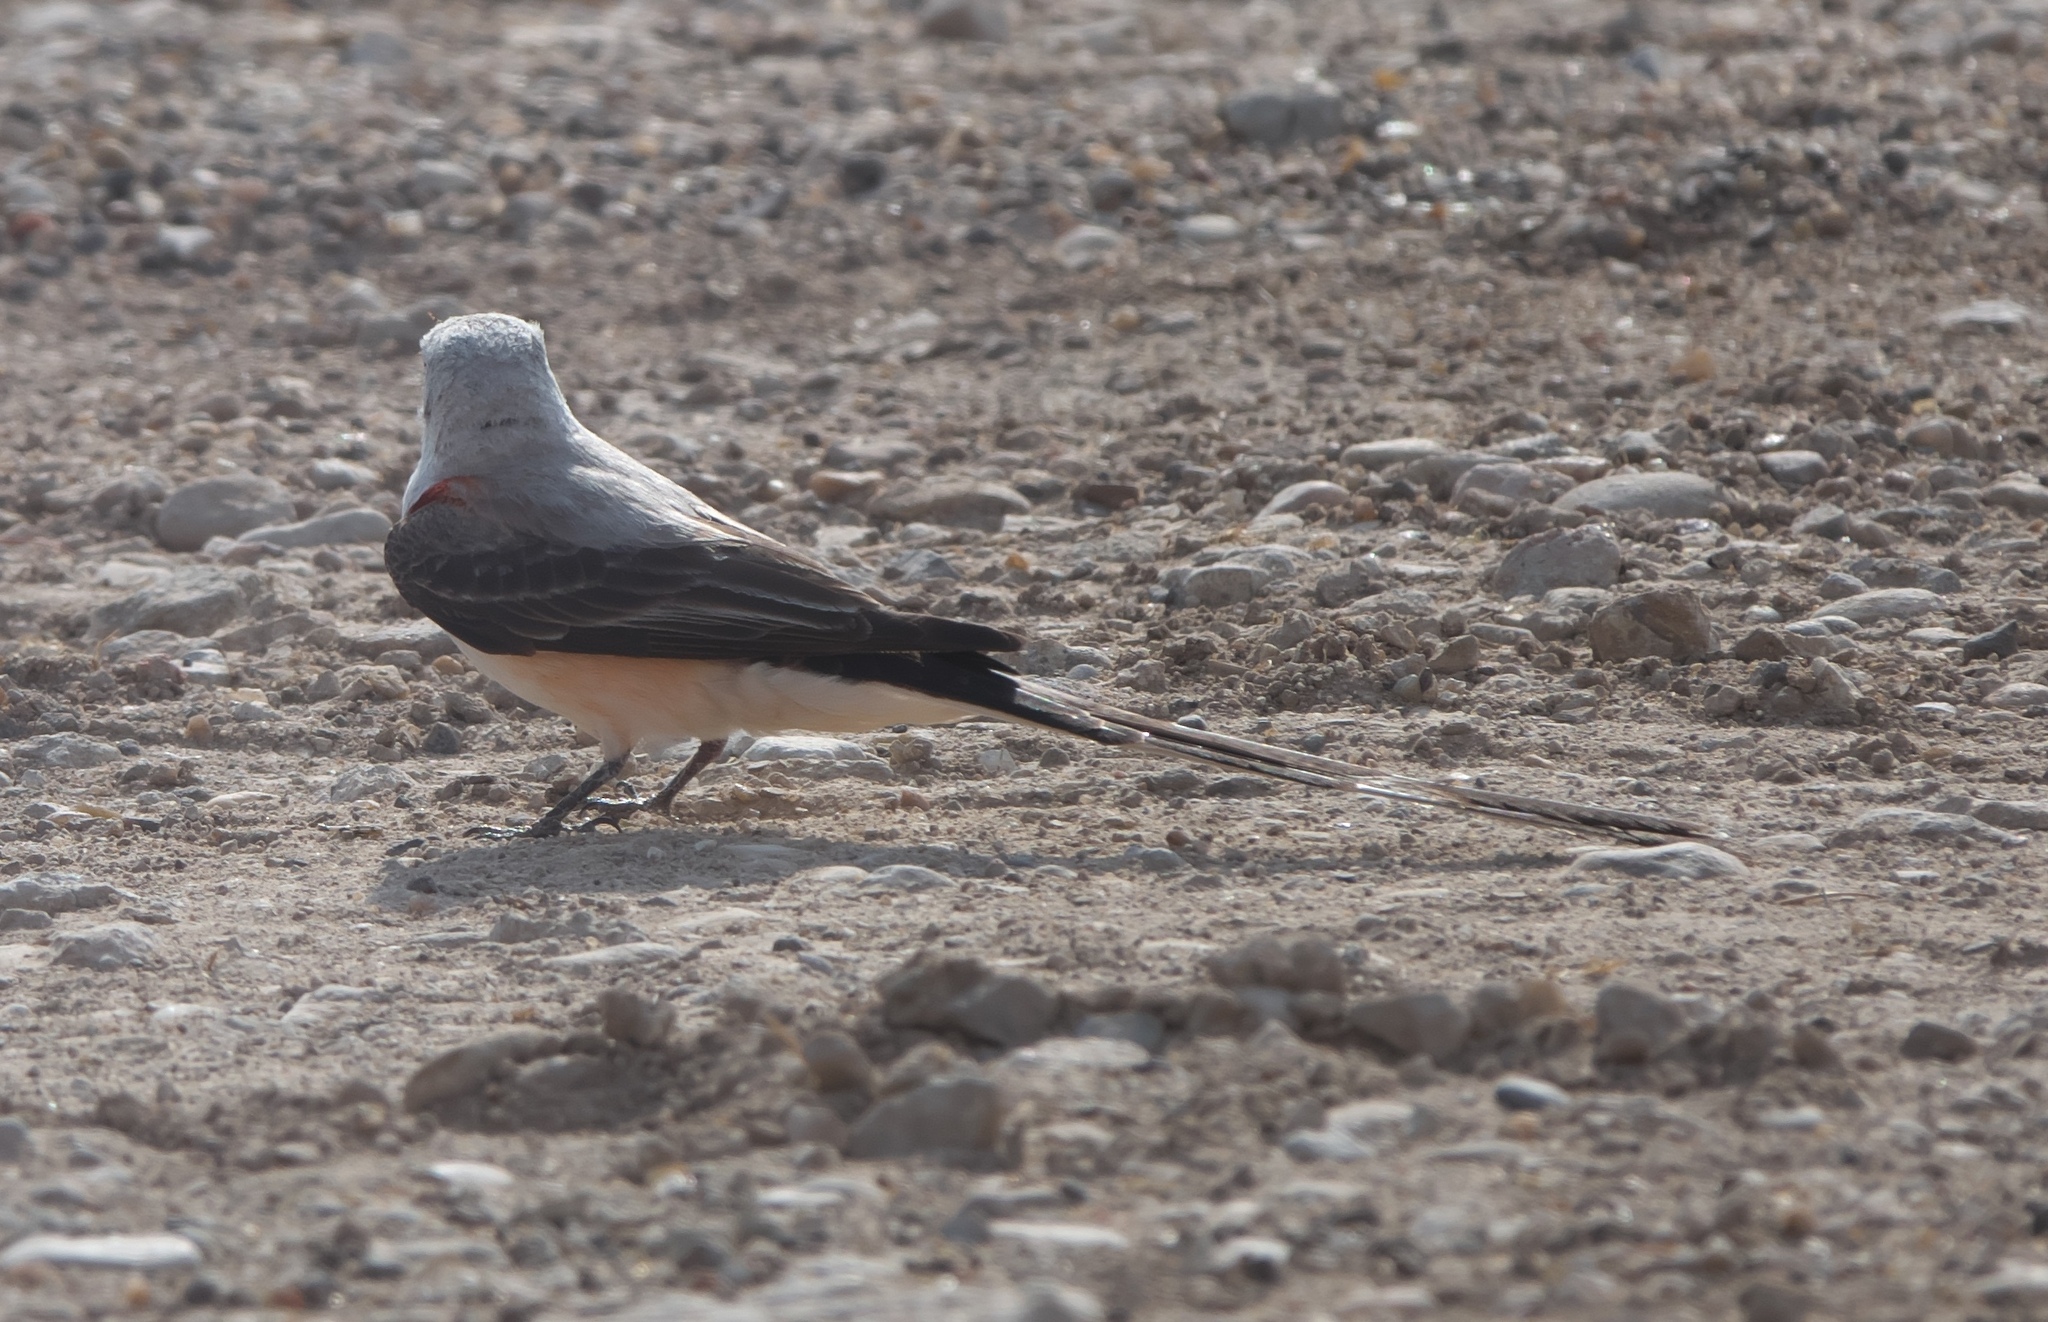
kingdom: Animalia
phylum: Chordata
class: Aves
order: Passeriformes
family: Tyrannidae
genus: Tyrannus
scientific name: Tyrannus forficatus
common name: Scissor-tailed flycatcher
